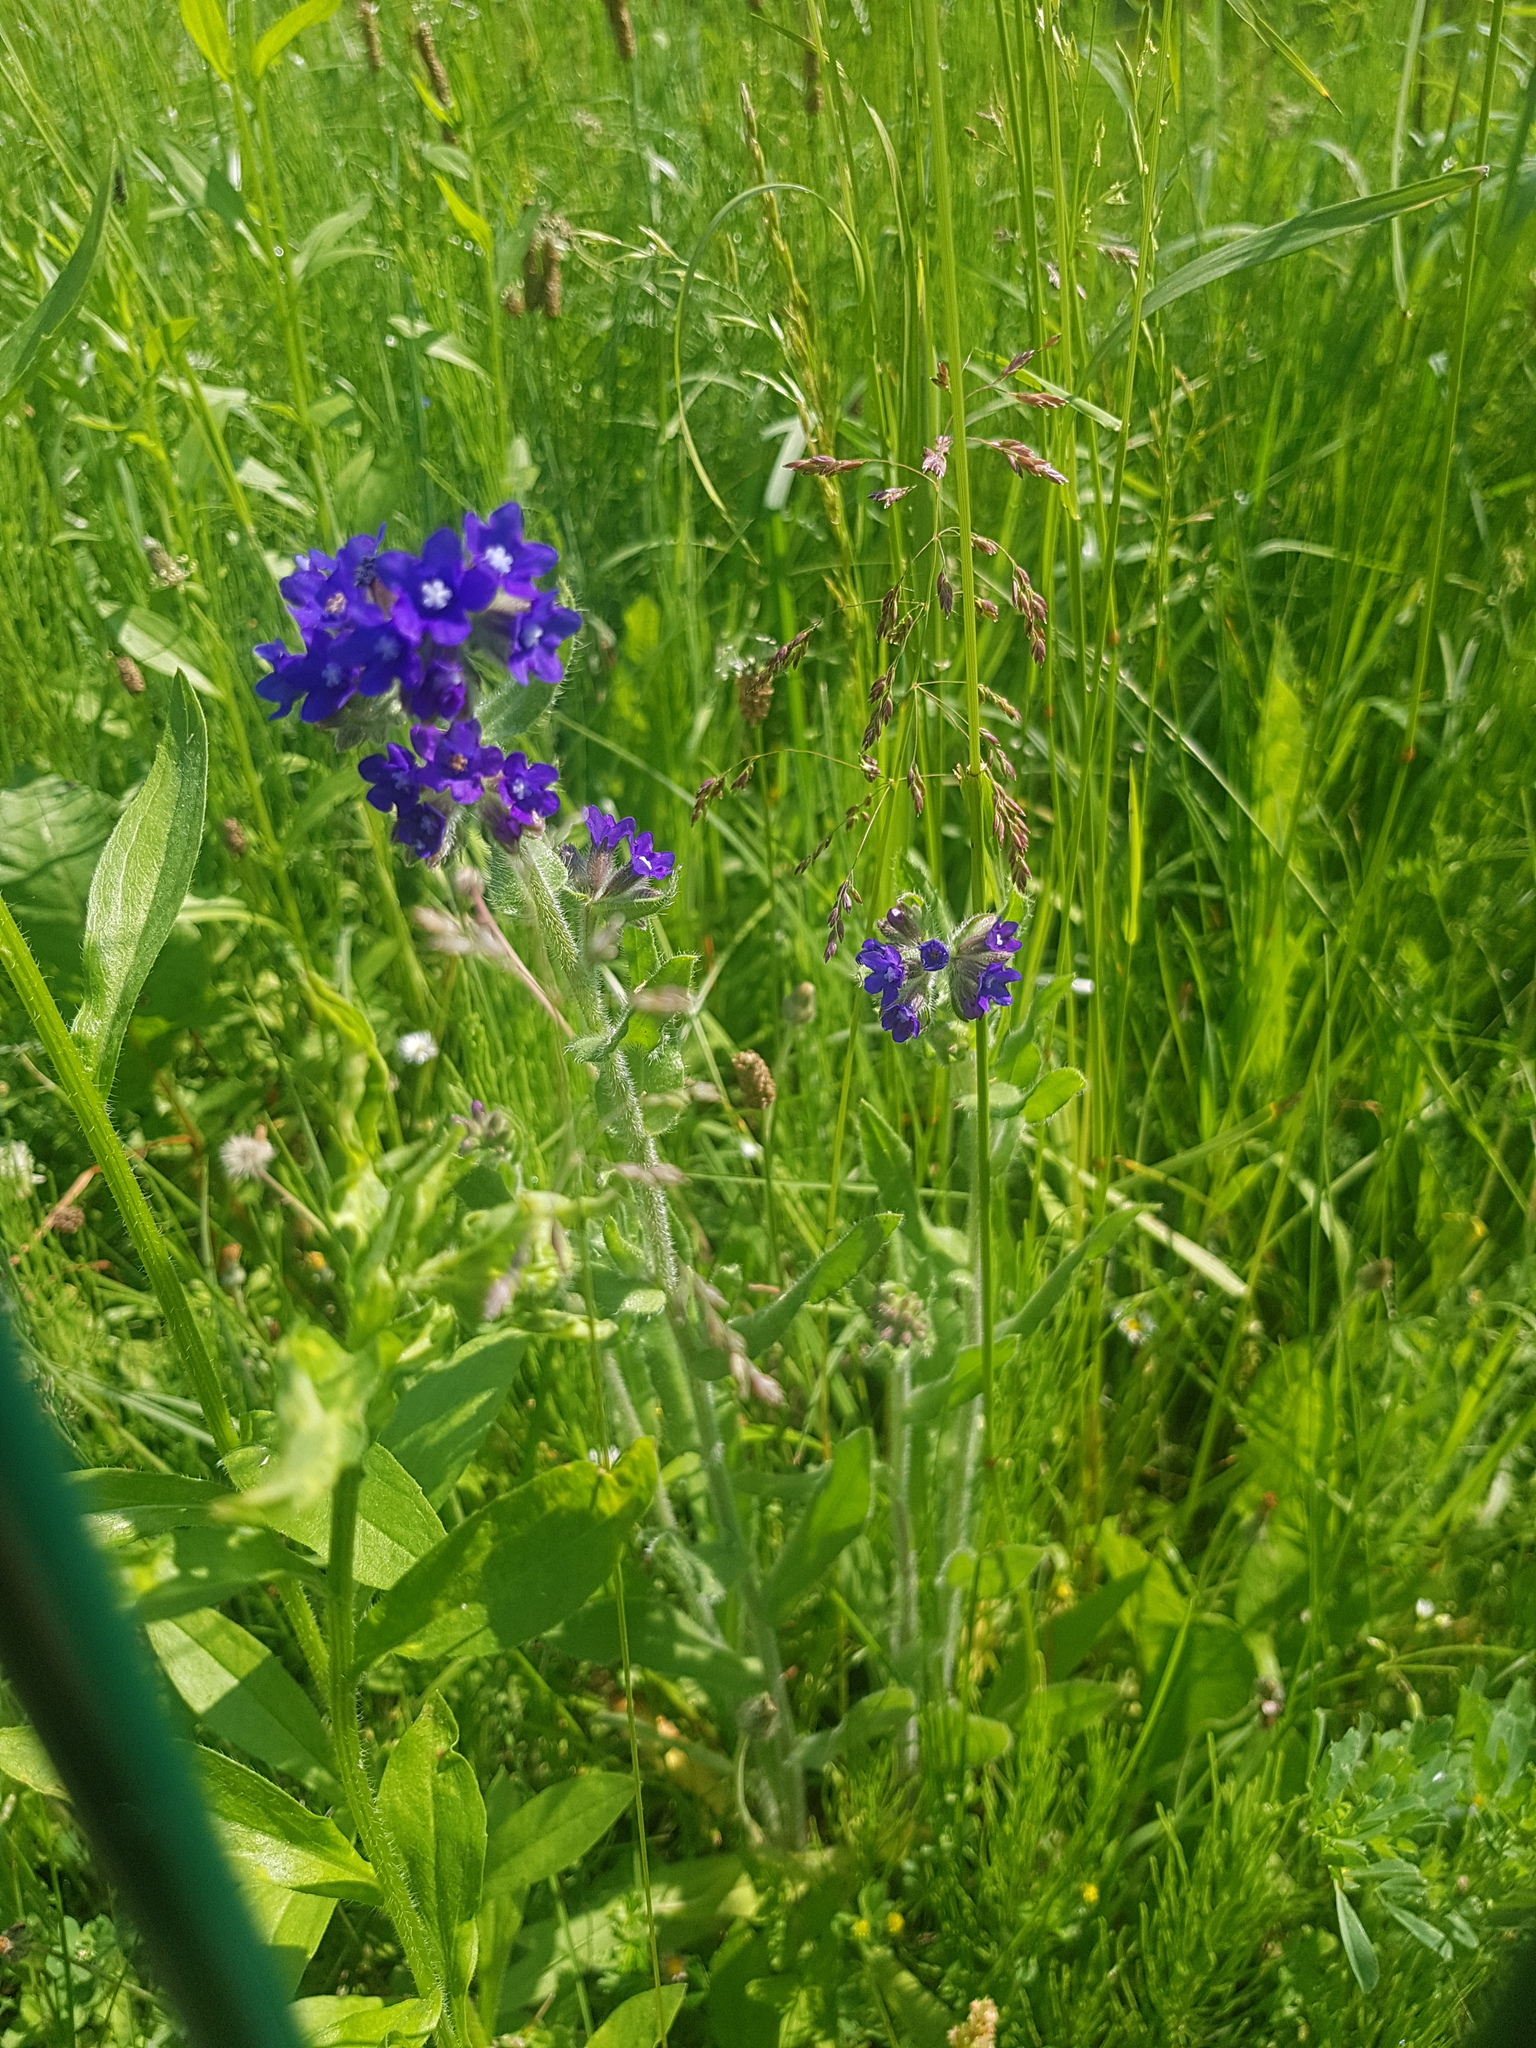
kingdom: Plantae
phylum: Tracheophyta
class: Magnoliopsida
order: Boraginales
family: Boraginaceae
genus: Anchusa
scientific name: Anchusa officinalis
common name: Alkanet
